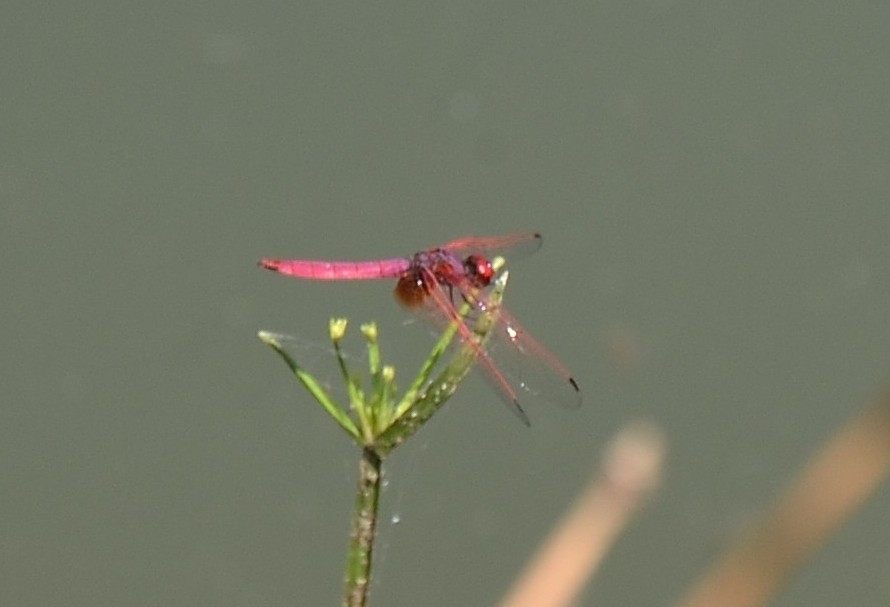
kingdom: Animalia
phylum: Arthropoda
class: Insecta
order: Odonata
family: Libellulidae
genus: Trithemis
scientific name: Trithemis aurora
